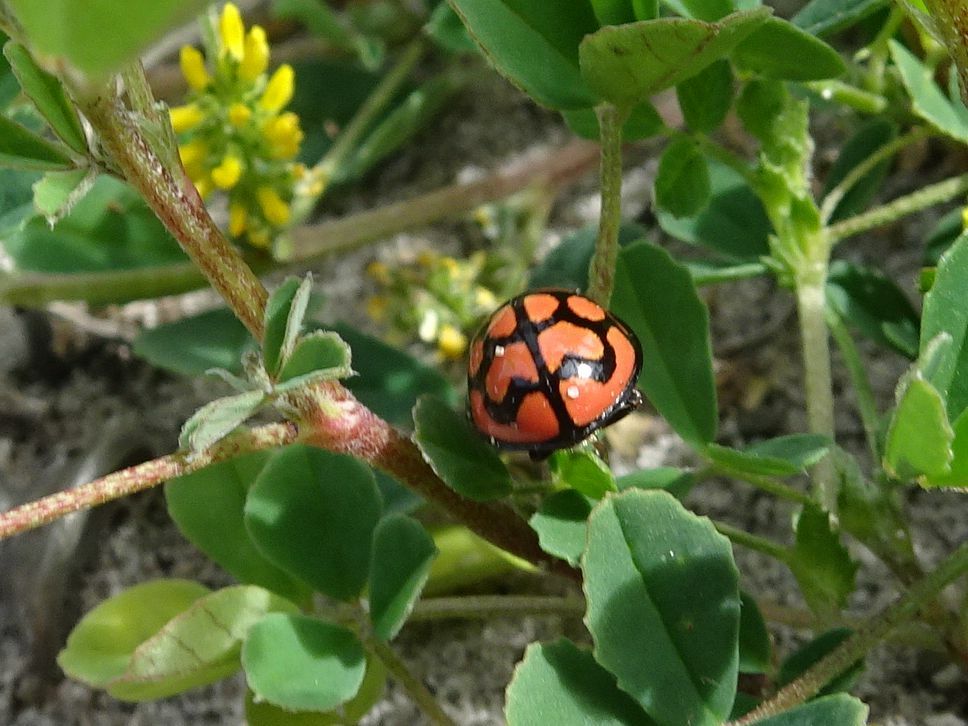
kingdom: Animalia
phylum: Arthropoda
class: Insecta
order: Coleoptera
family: Coccinellidae
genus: Cheilomenes
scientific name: Cheilomenes lunata
